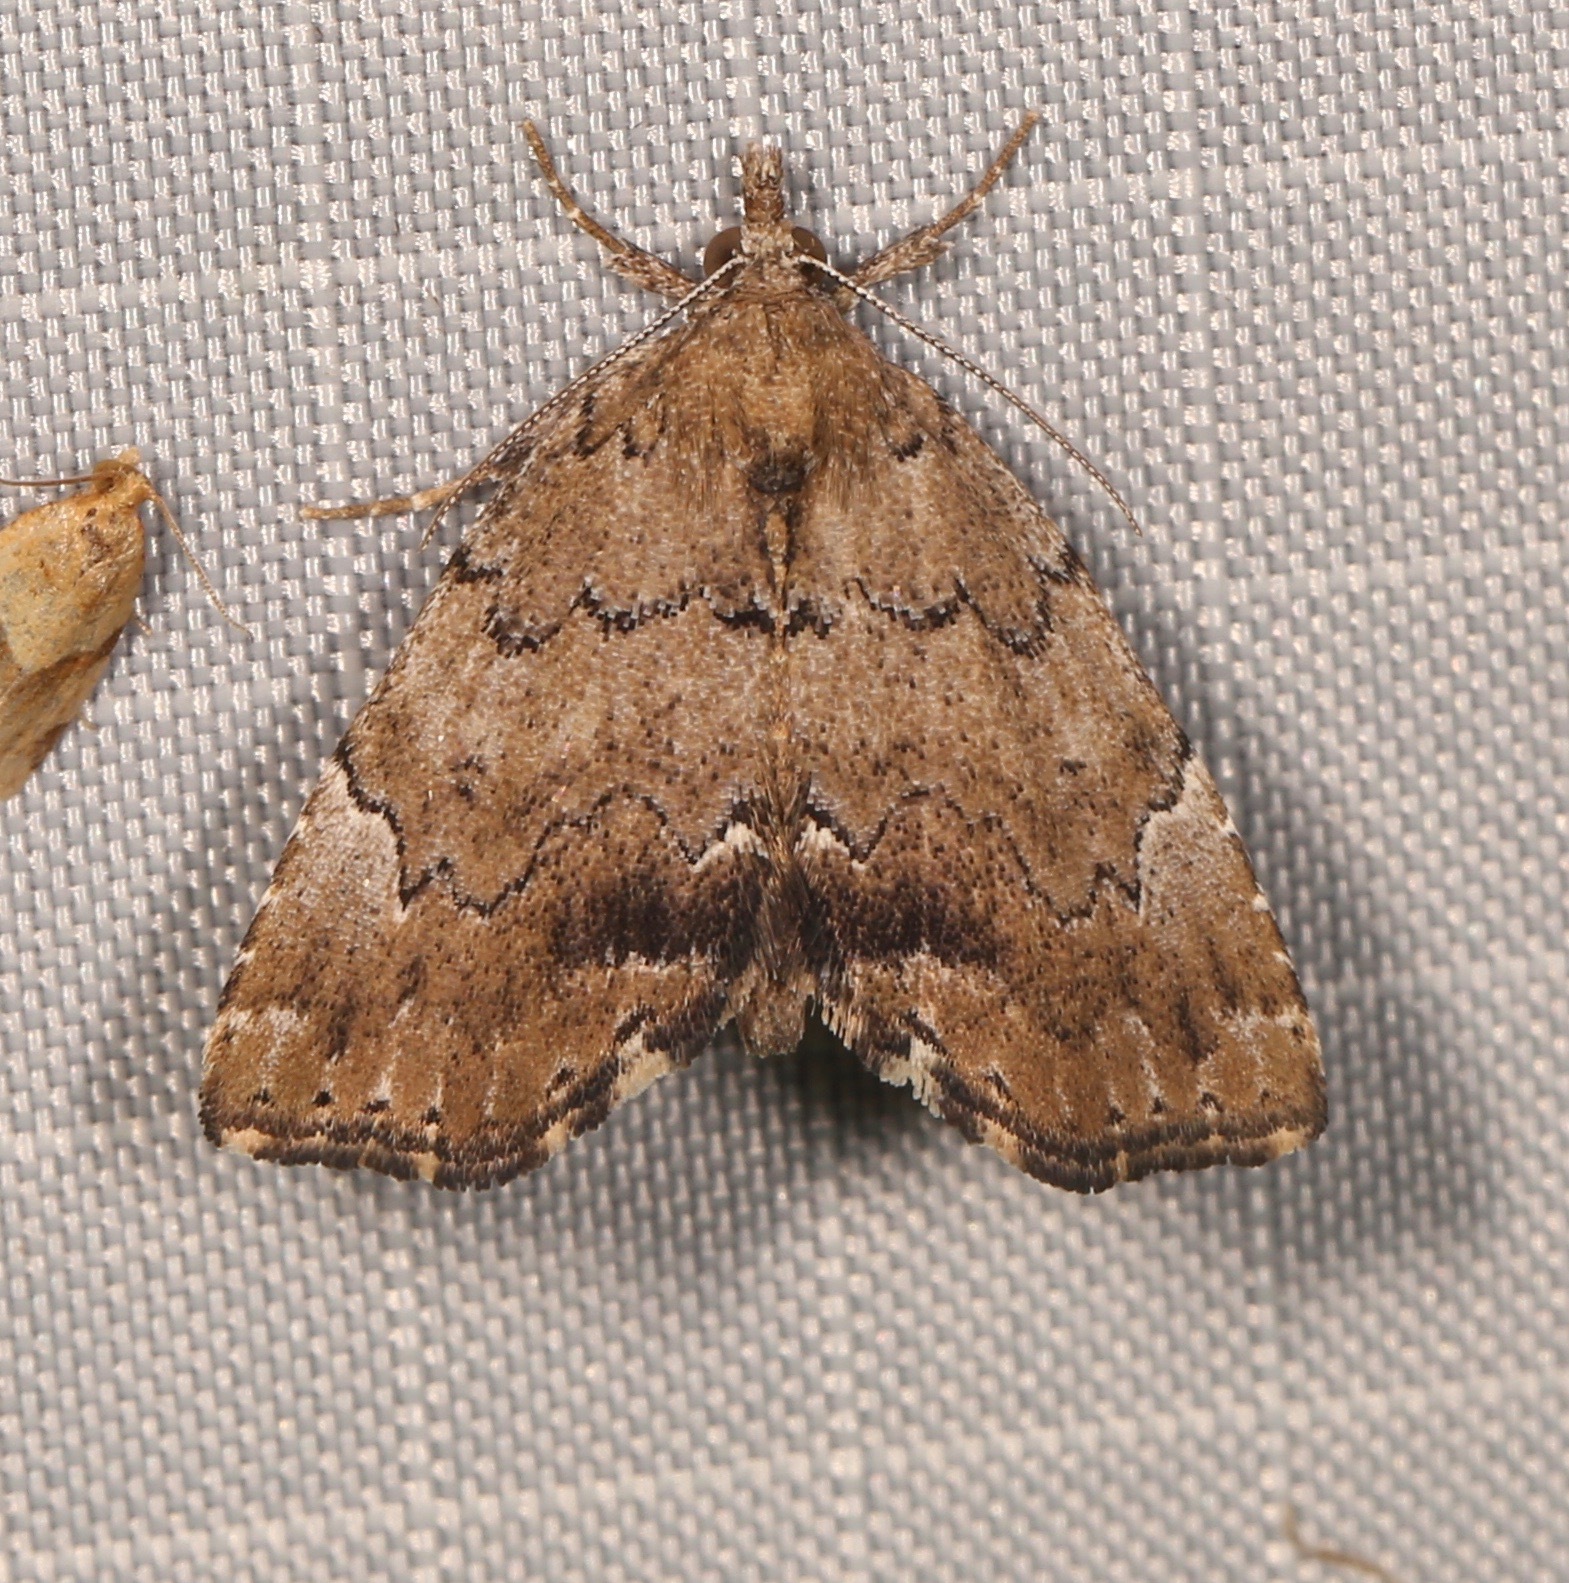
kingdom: Animalia
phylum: Arthropoda
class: Insecta
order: Lepidoptera
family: Erebidae
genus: Cutina
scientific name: Cutina aluticolor
